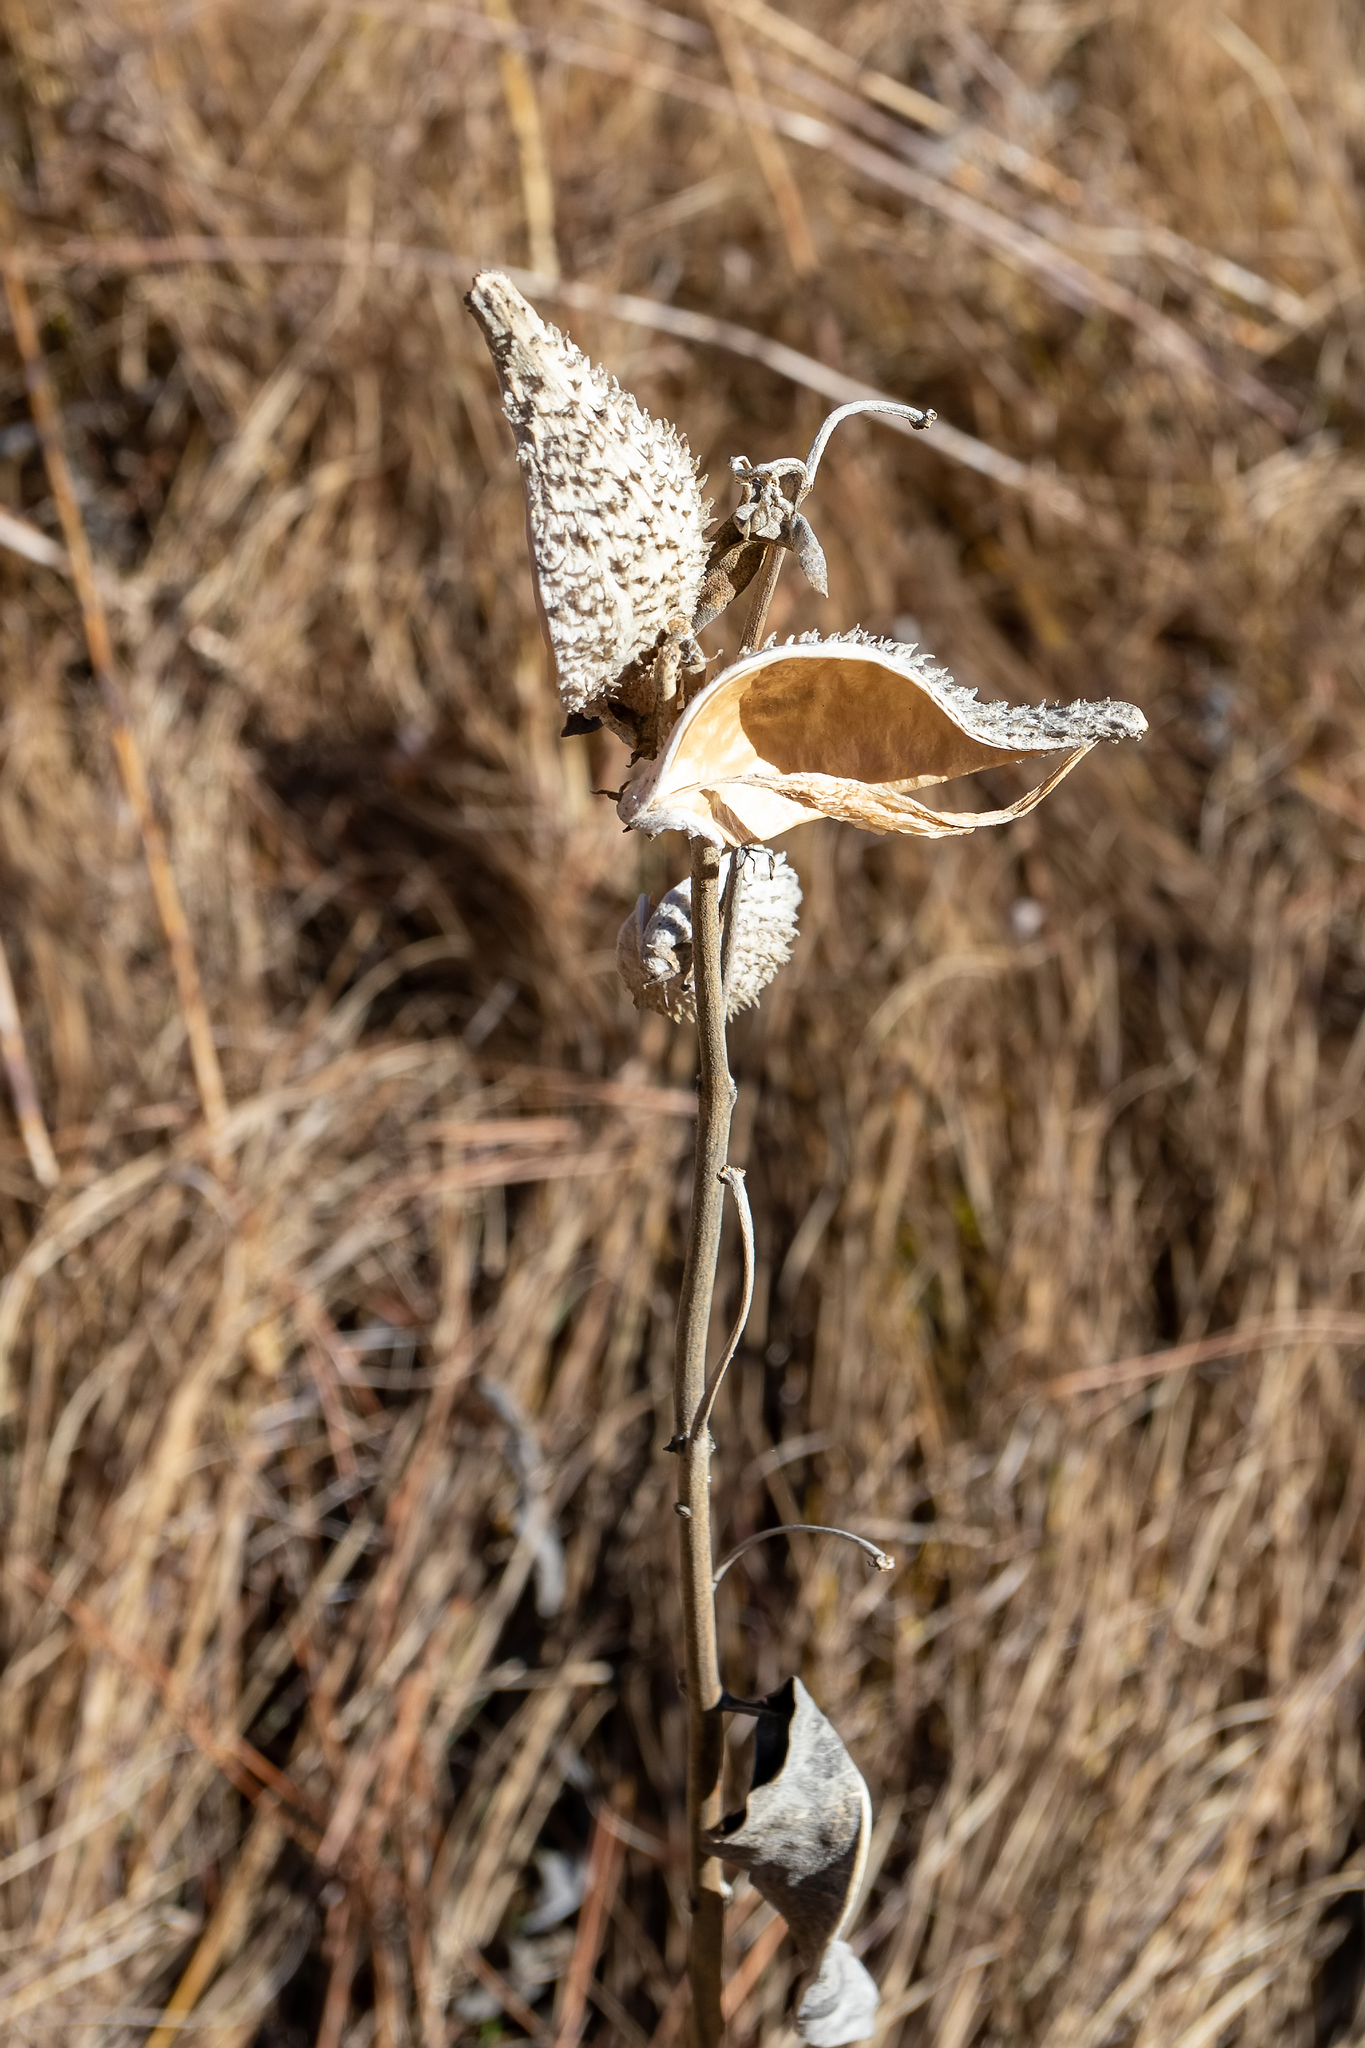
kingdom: Plantae
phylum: Tracheophyta
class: Magnoliopsida
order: Gentianales
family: Apocynaceae
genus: Asclepias
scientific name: Asclepias speciosa
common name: Showy milkweed
